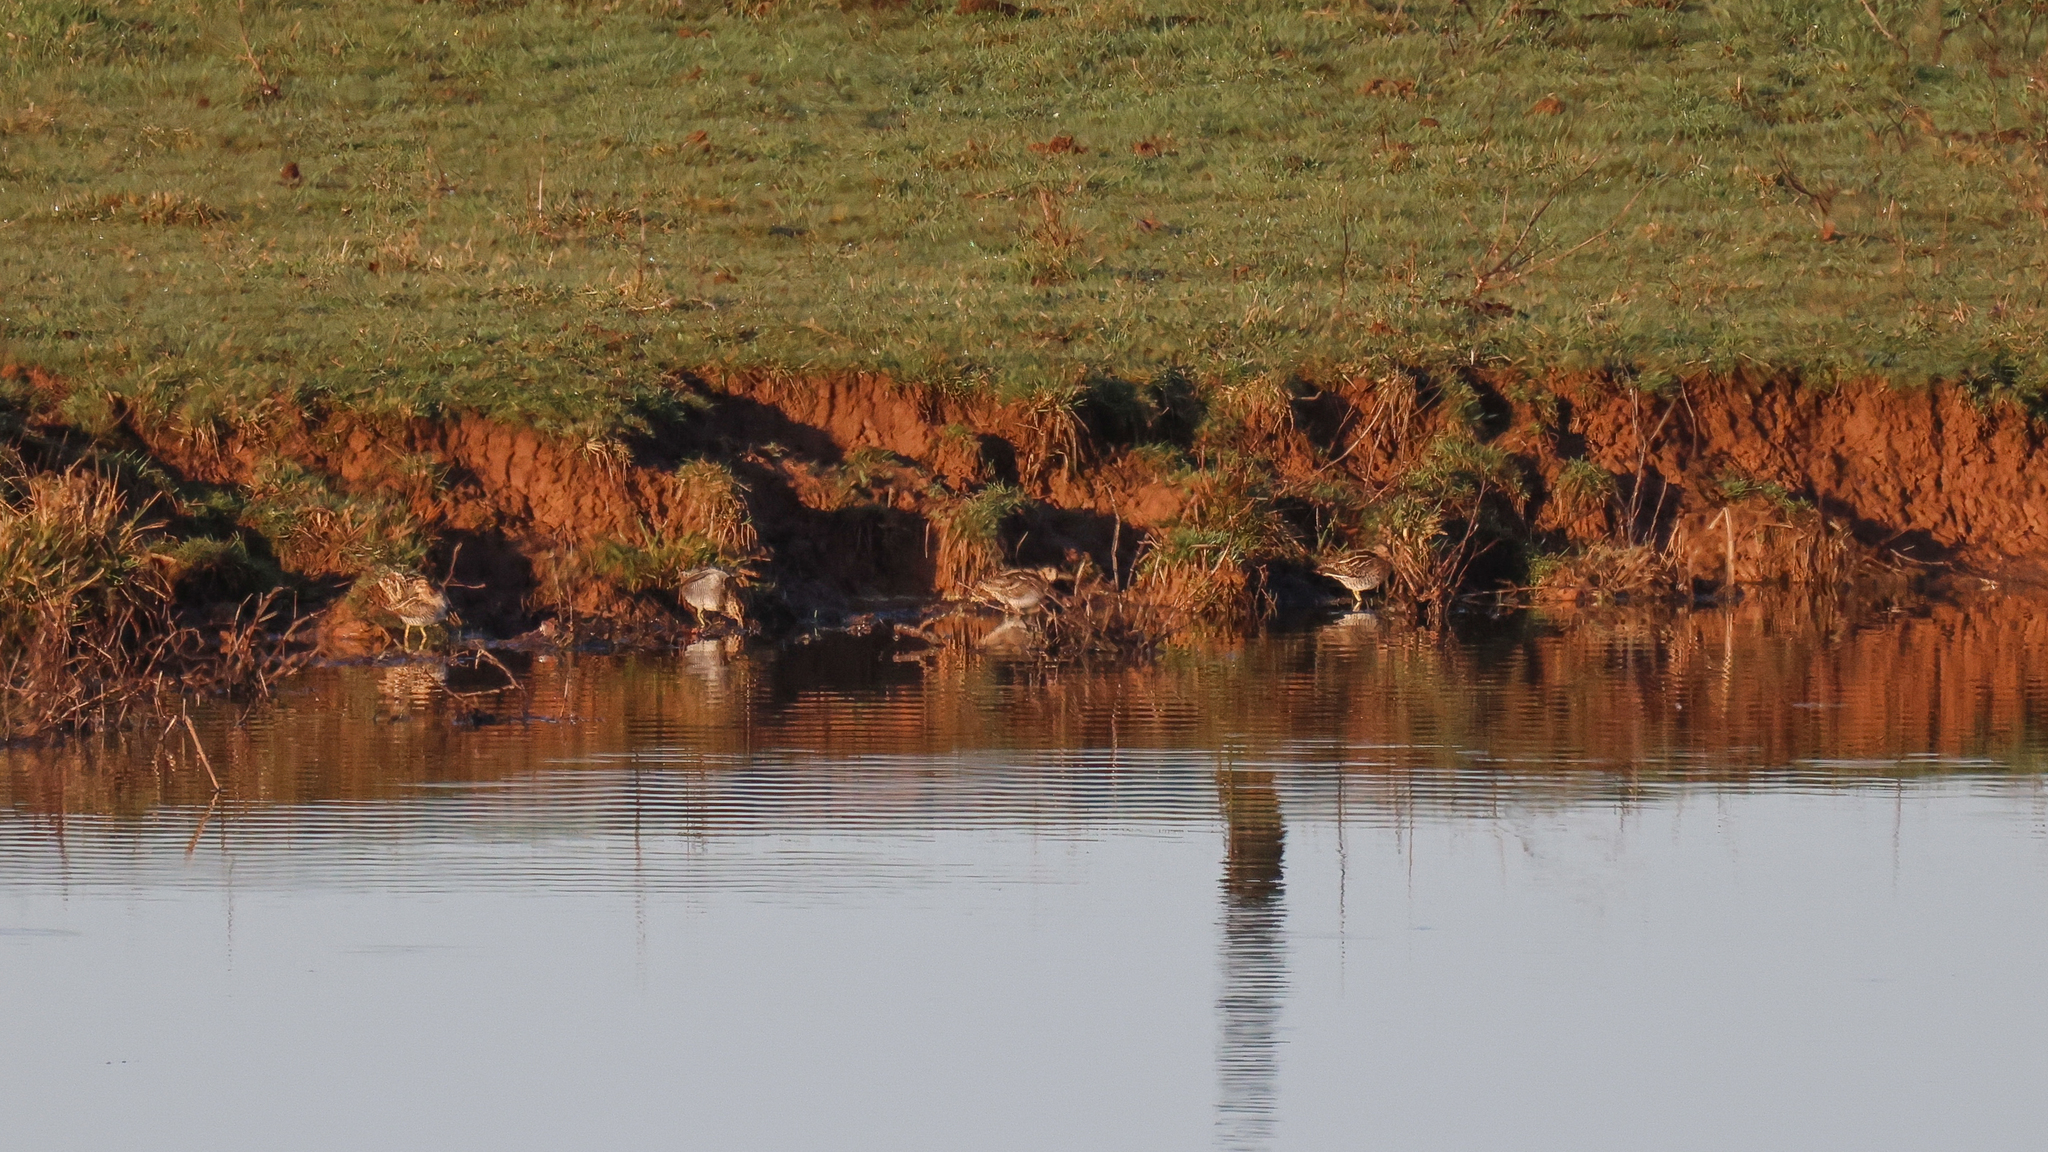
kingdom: Animalia
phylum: Chordata
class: Aves
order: Charadriiformes
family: Scolopacidae
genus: Gallinago
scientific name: Gallinago delicata
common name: Wilson's snipe
